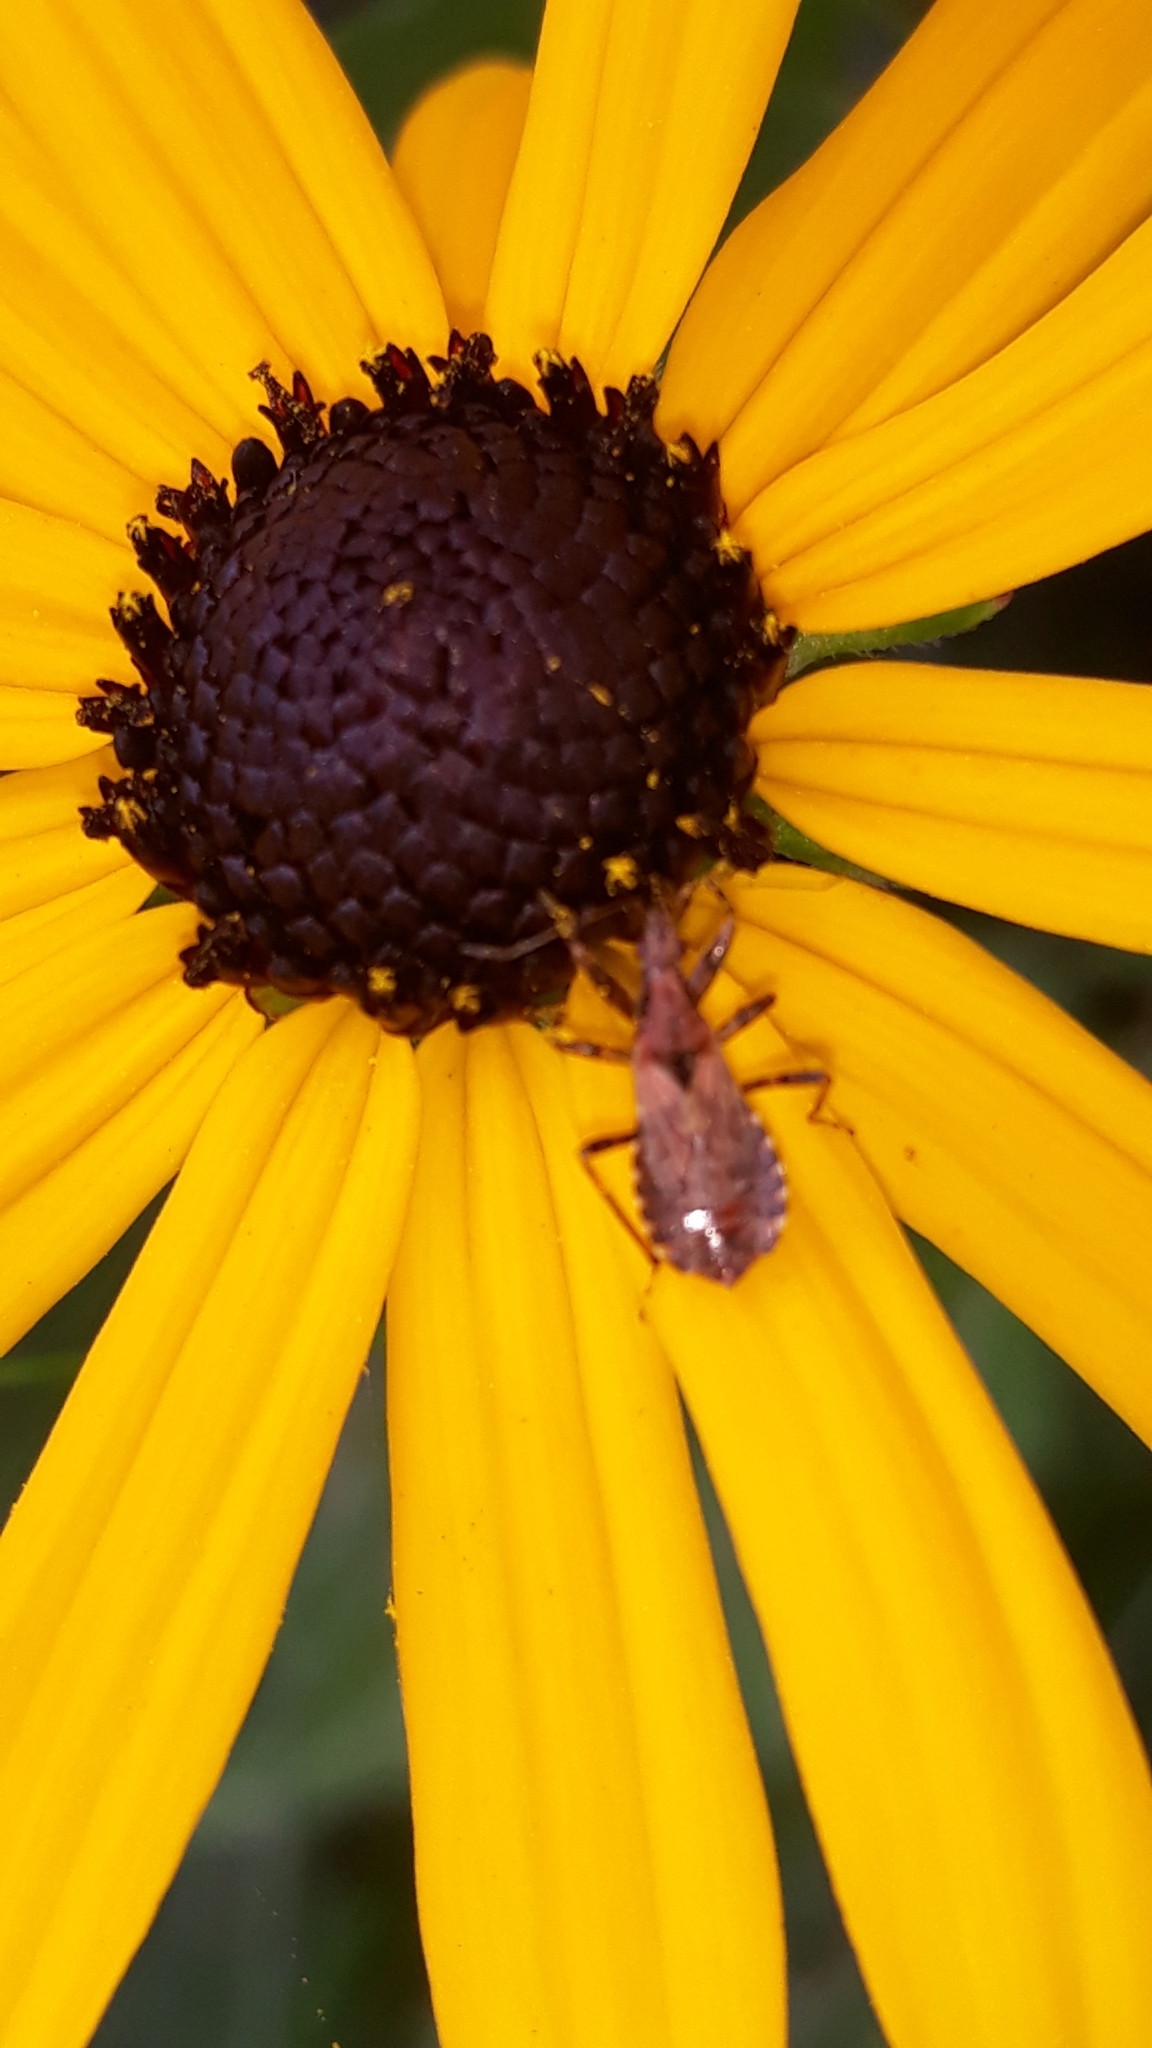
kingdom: Animalia
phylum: Arthropoda
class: Insecta
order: Hemiptera
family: Nabidae
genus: Himacerus
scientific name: Himacerus mirmicoides
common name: Ant damsel bug
